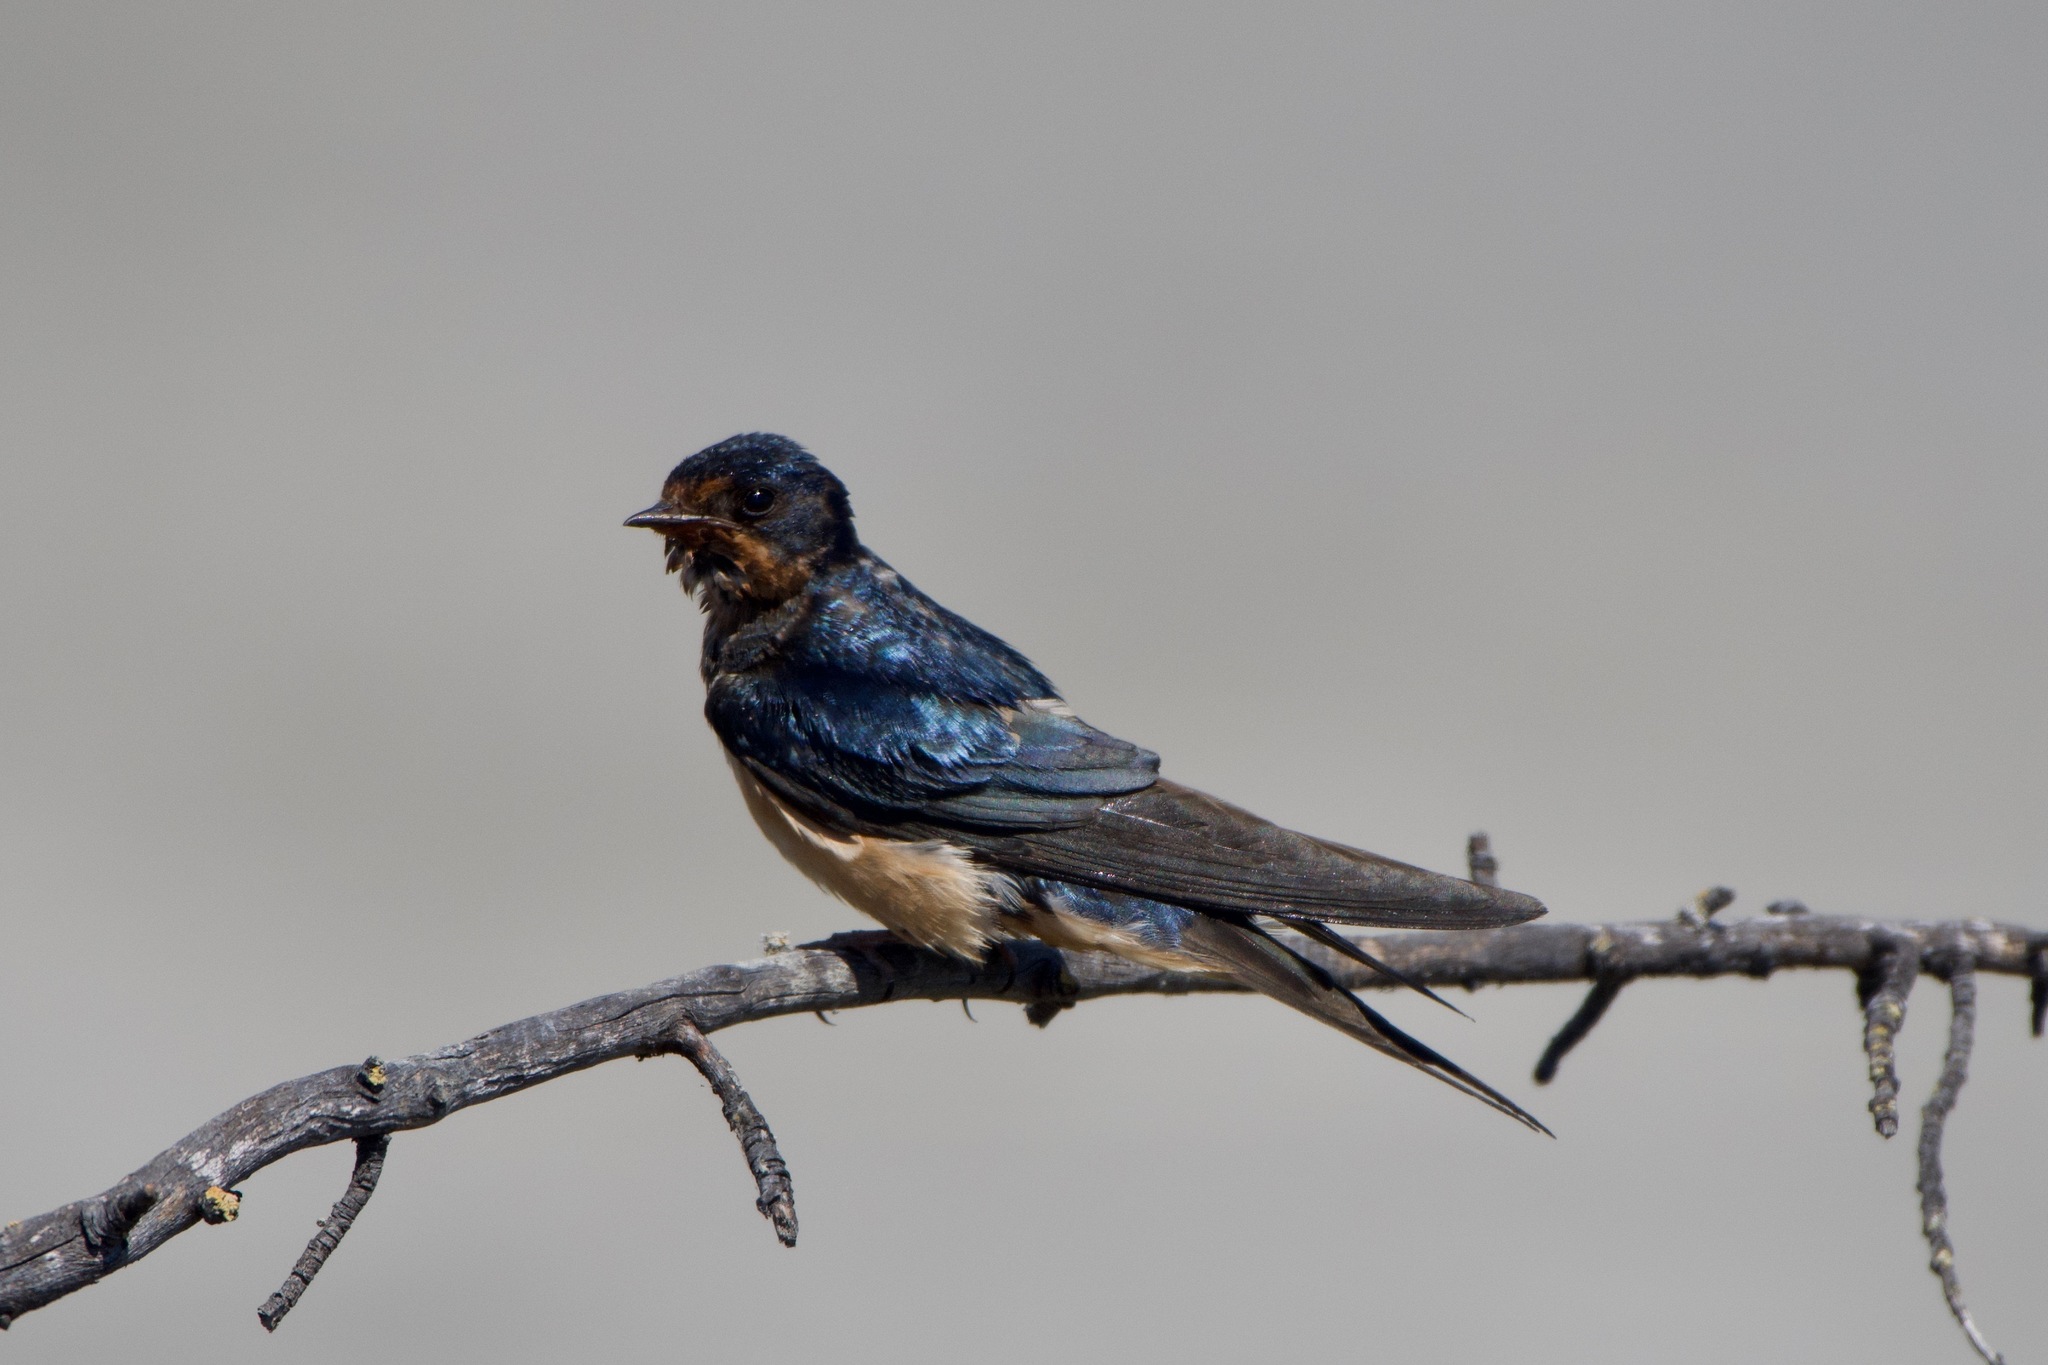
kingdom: Animalia
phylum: Chordata
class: Aves
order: Passeriformes
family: Hirundinidae
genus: Hirundo
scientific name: Hirundo rustica
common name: Barn swallow
